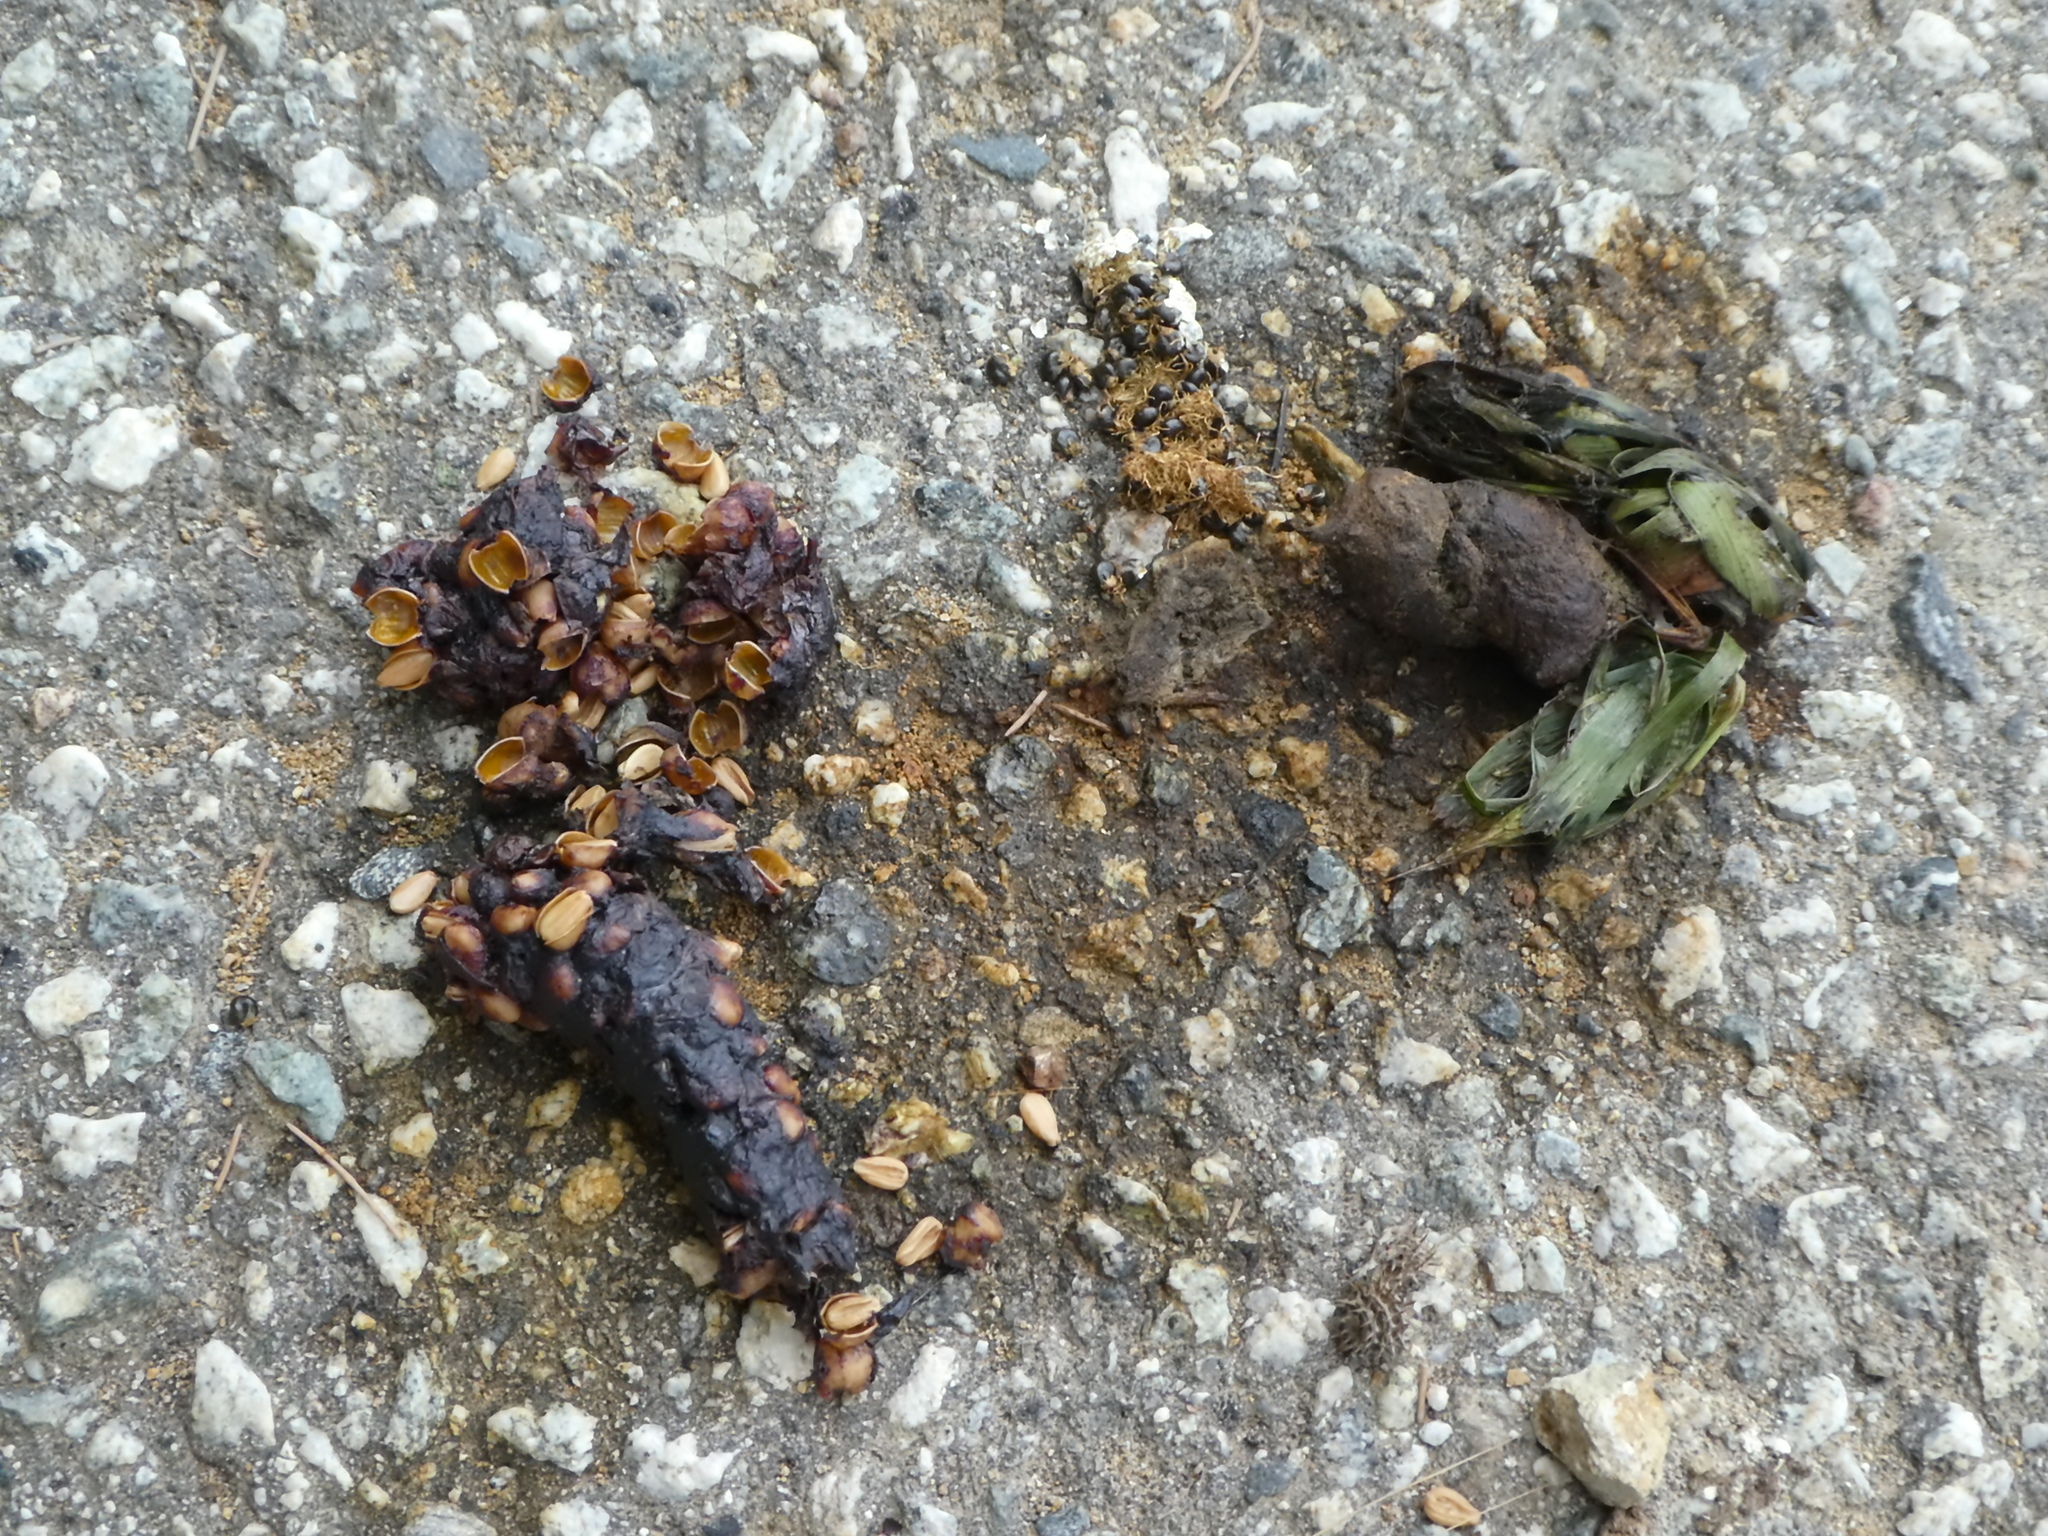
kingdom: Animalia
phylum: Chordata
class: Mammalia
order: Carnivora
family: Canidae
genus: Urocyon
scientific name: Urocyon littoralis
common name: Island gray fox
